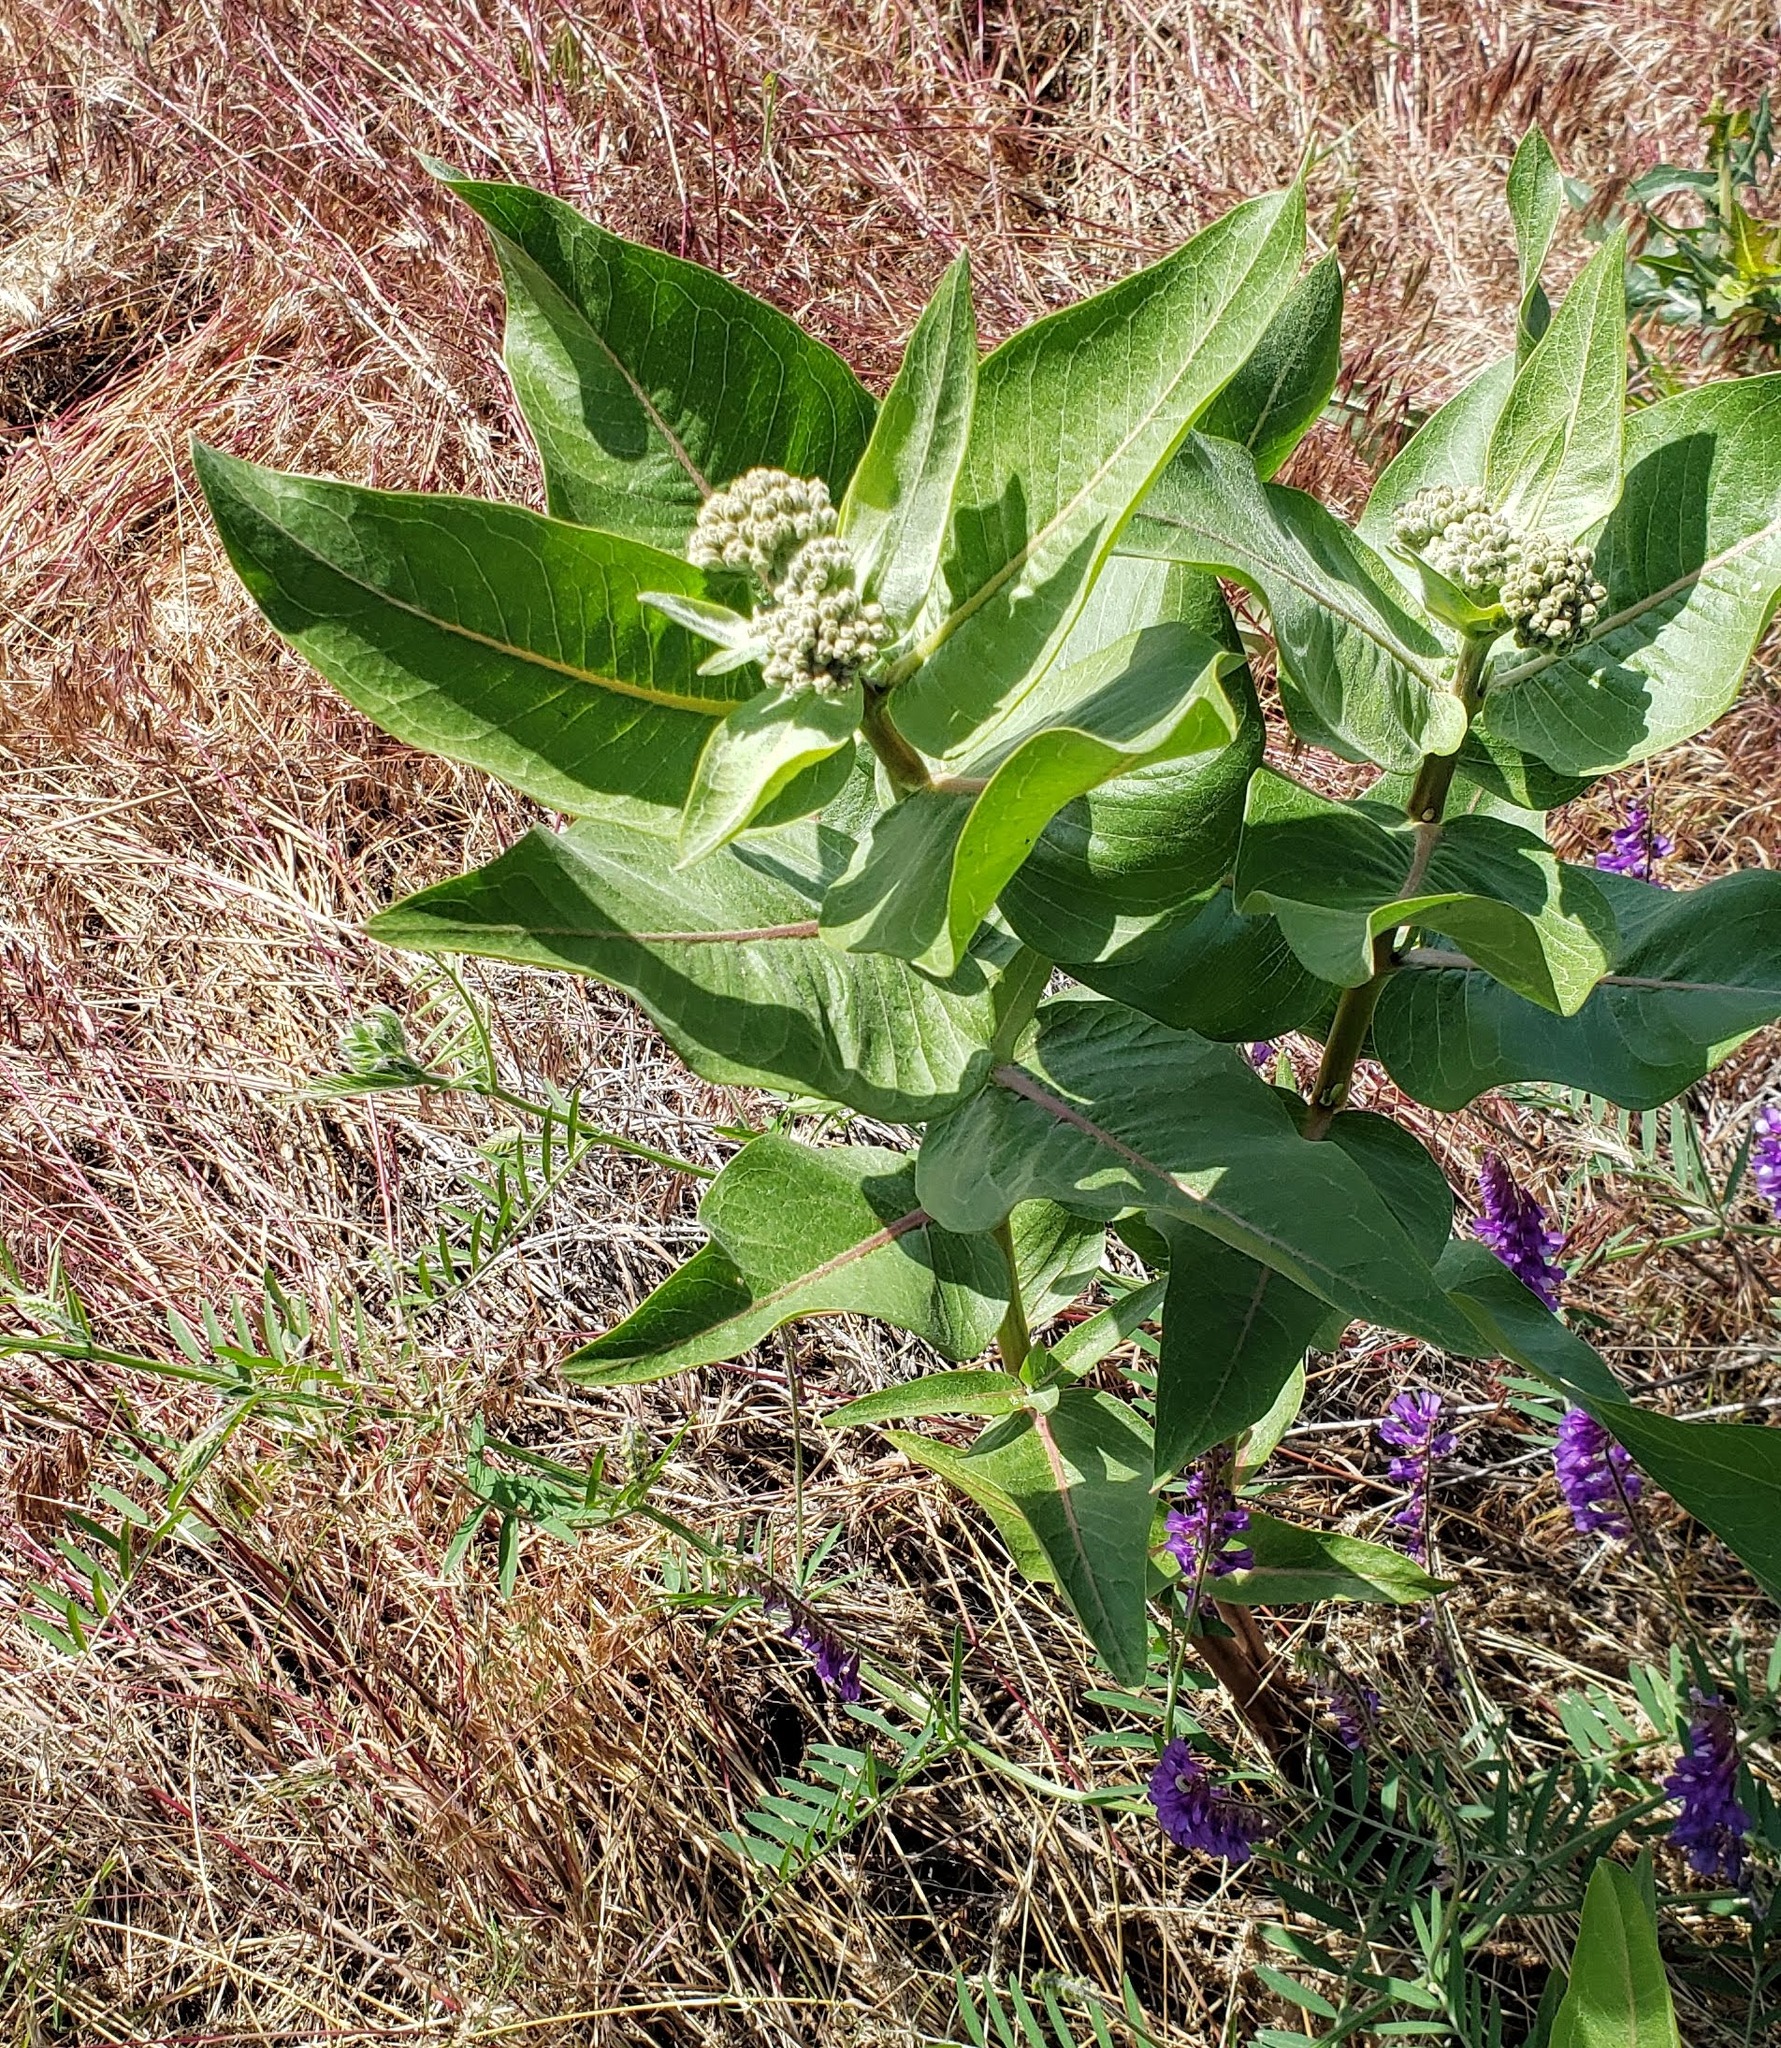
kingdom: Plantae
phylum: Tracheophyta
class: Magnoliopsida
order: Gentianales
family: Apocynaceae
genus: Asclepias
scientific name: Asclepias speciosa
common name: Showy milkweed
